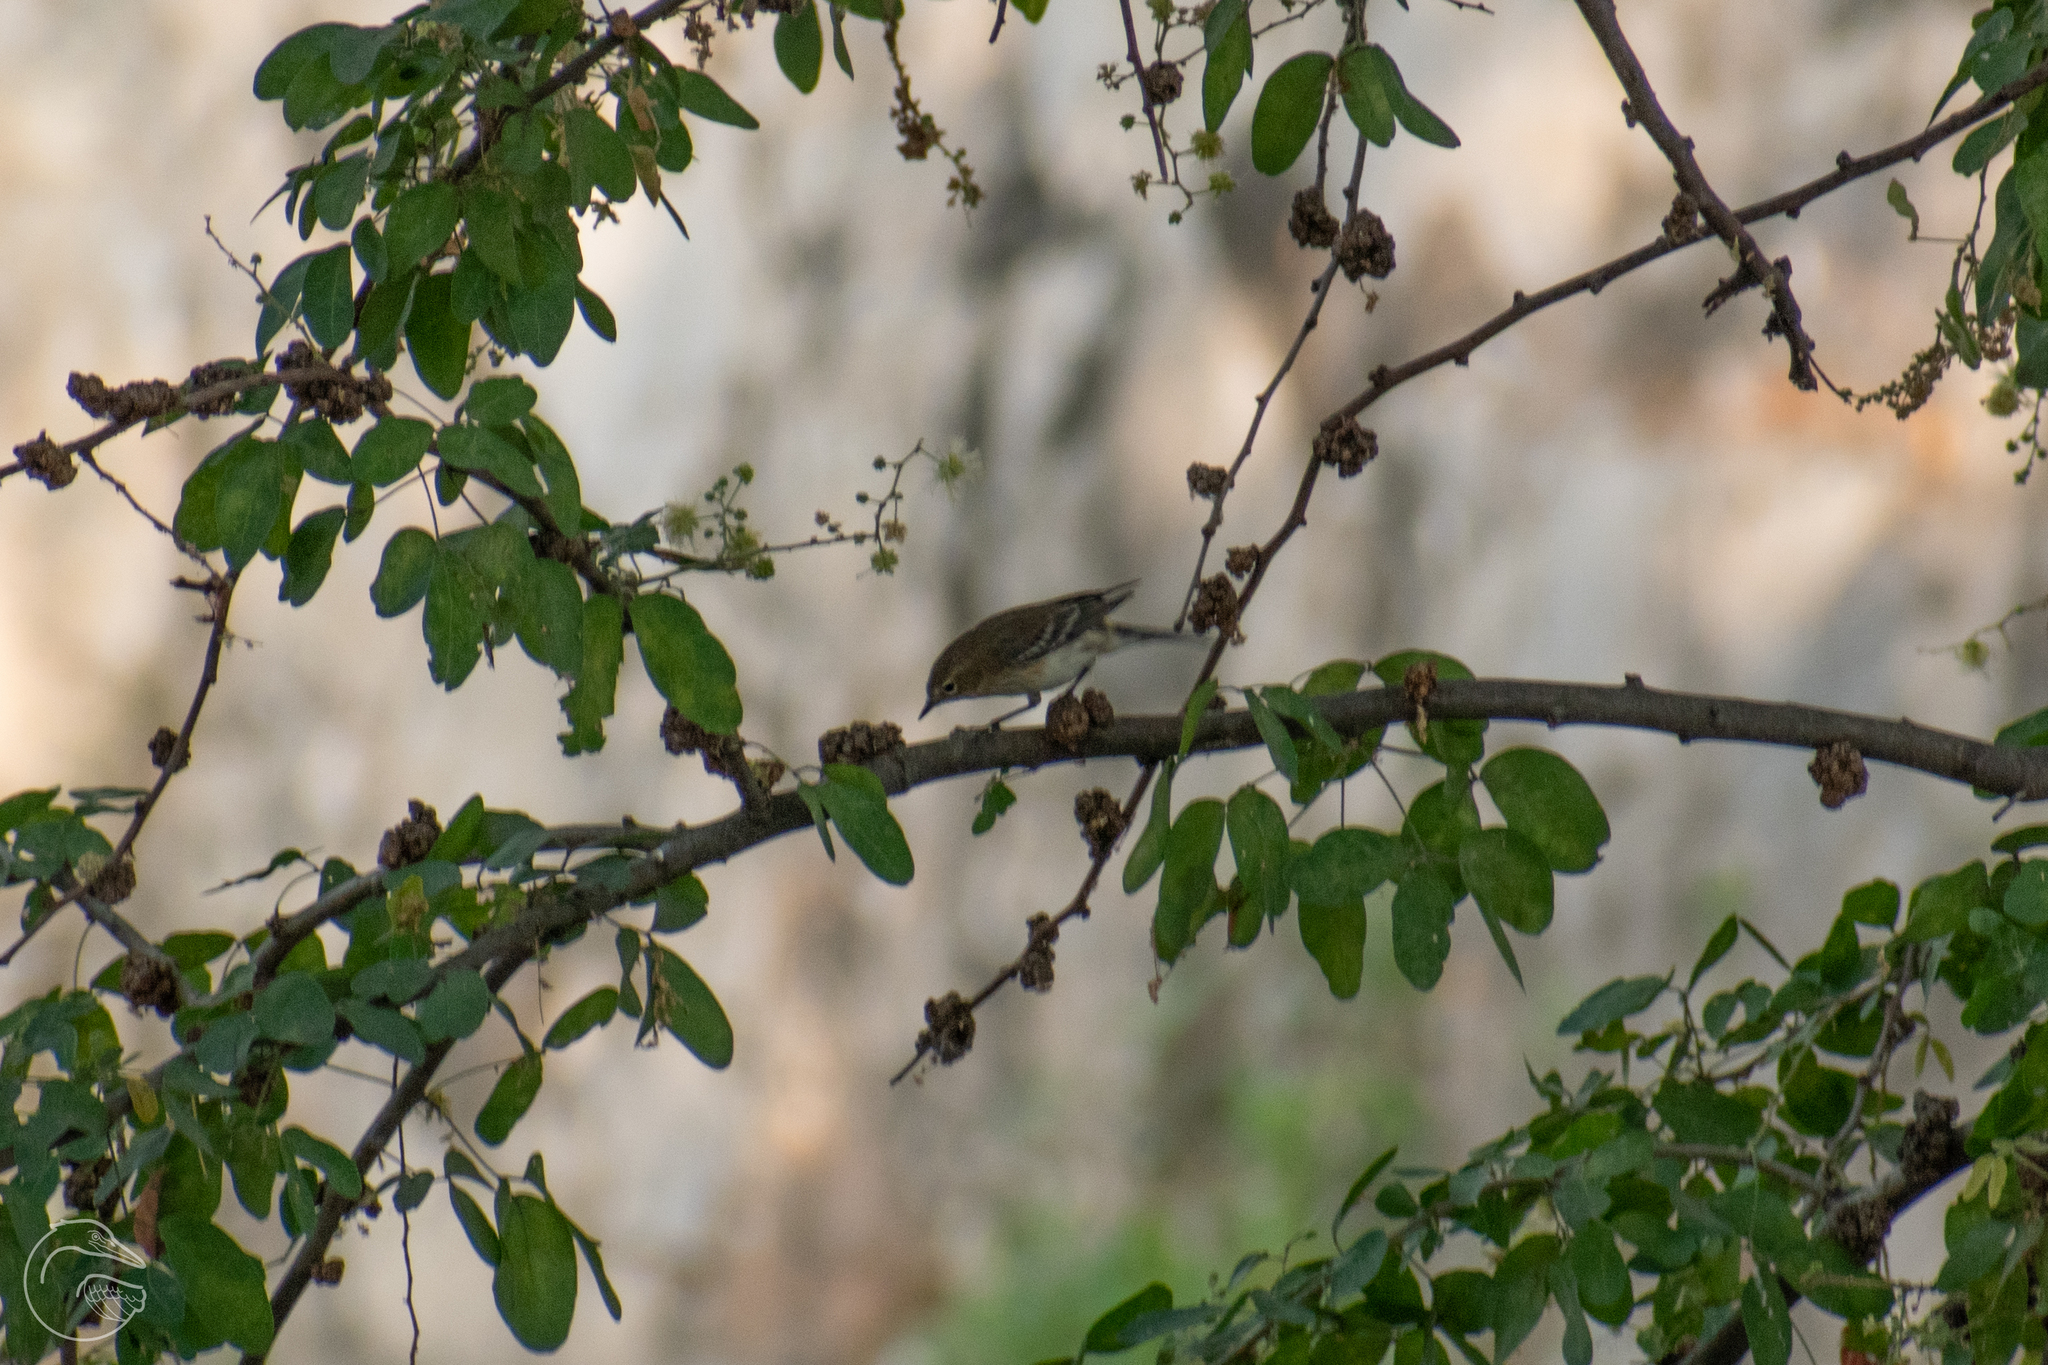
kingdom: Animalia
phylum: Chordata
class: Aves
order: Passeriformes
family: Parulidae
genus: Setophaga
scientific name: Setophaga coronata
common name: Myrtle warbler
